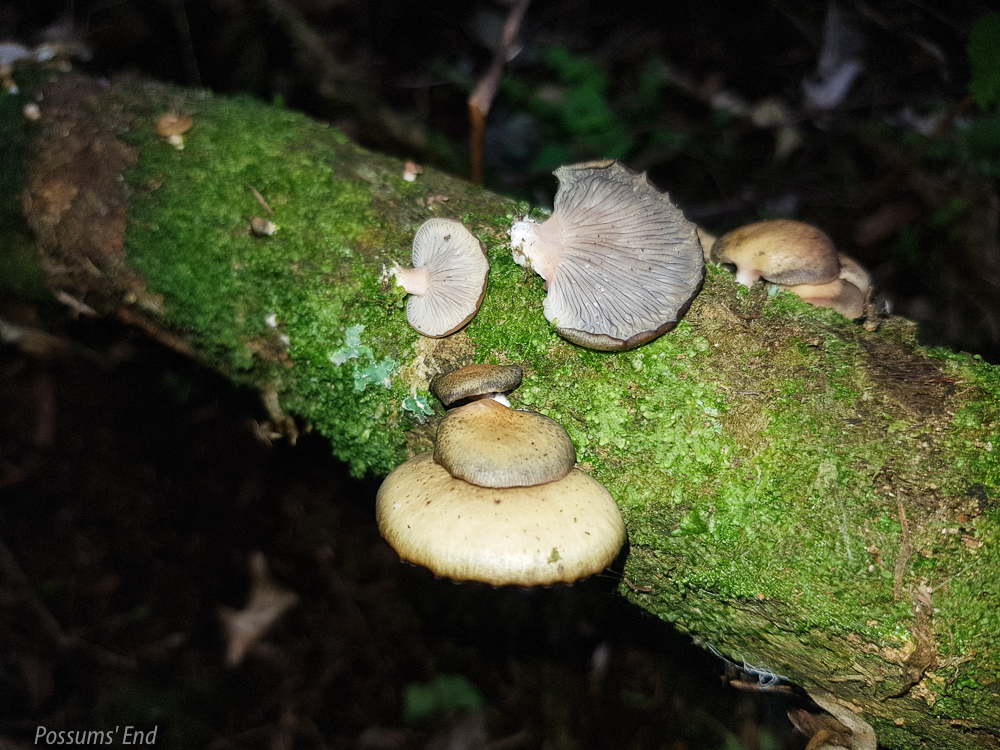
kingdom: Fungi
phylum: Basidiomycota
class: Agaricomycetes
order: Agaricales
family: Mycenaceae
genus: Panellus
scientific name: Panellus longinquus
